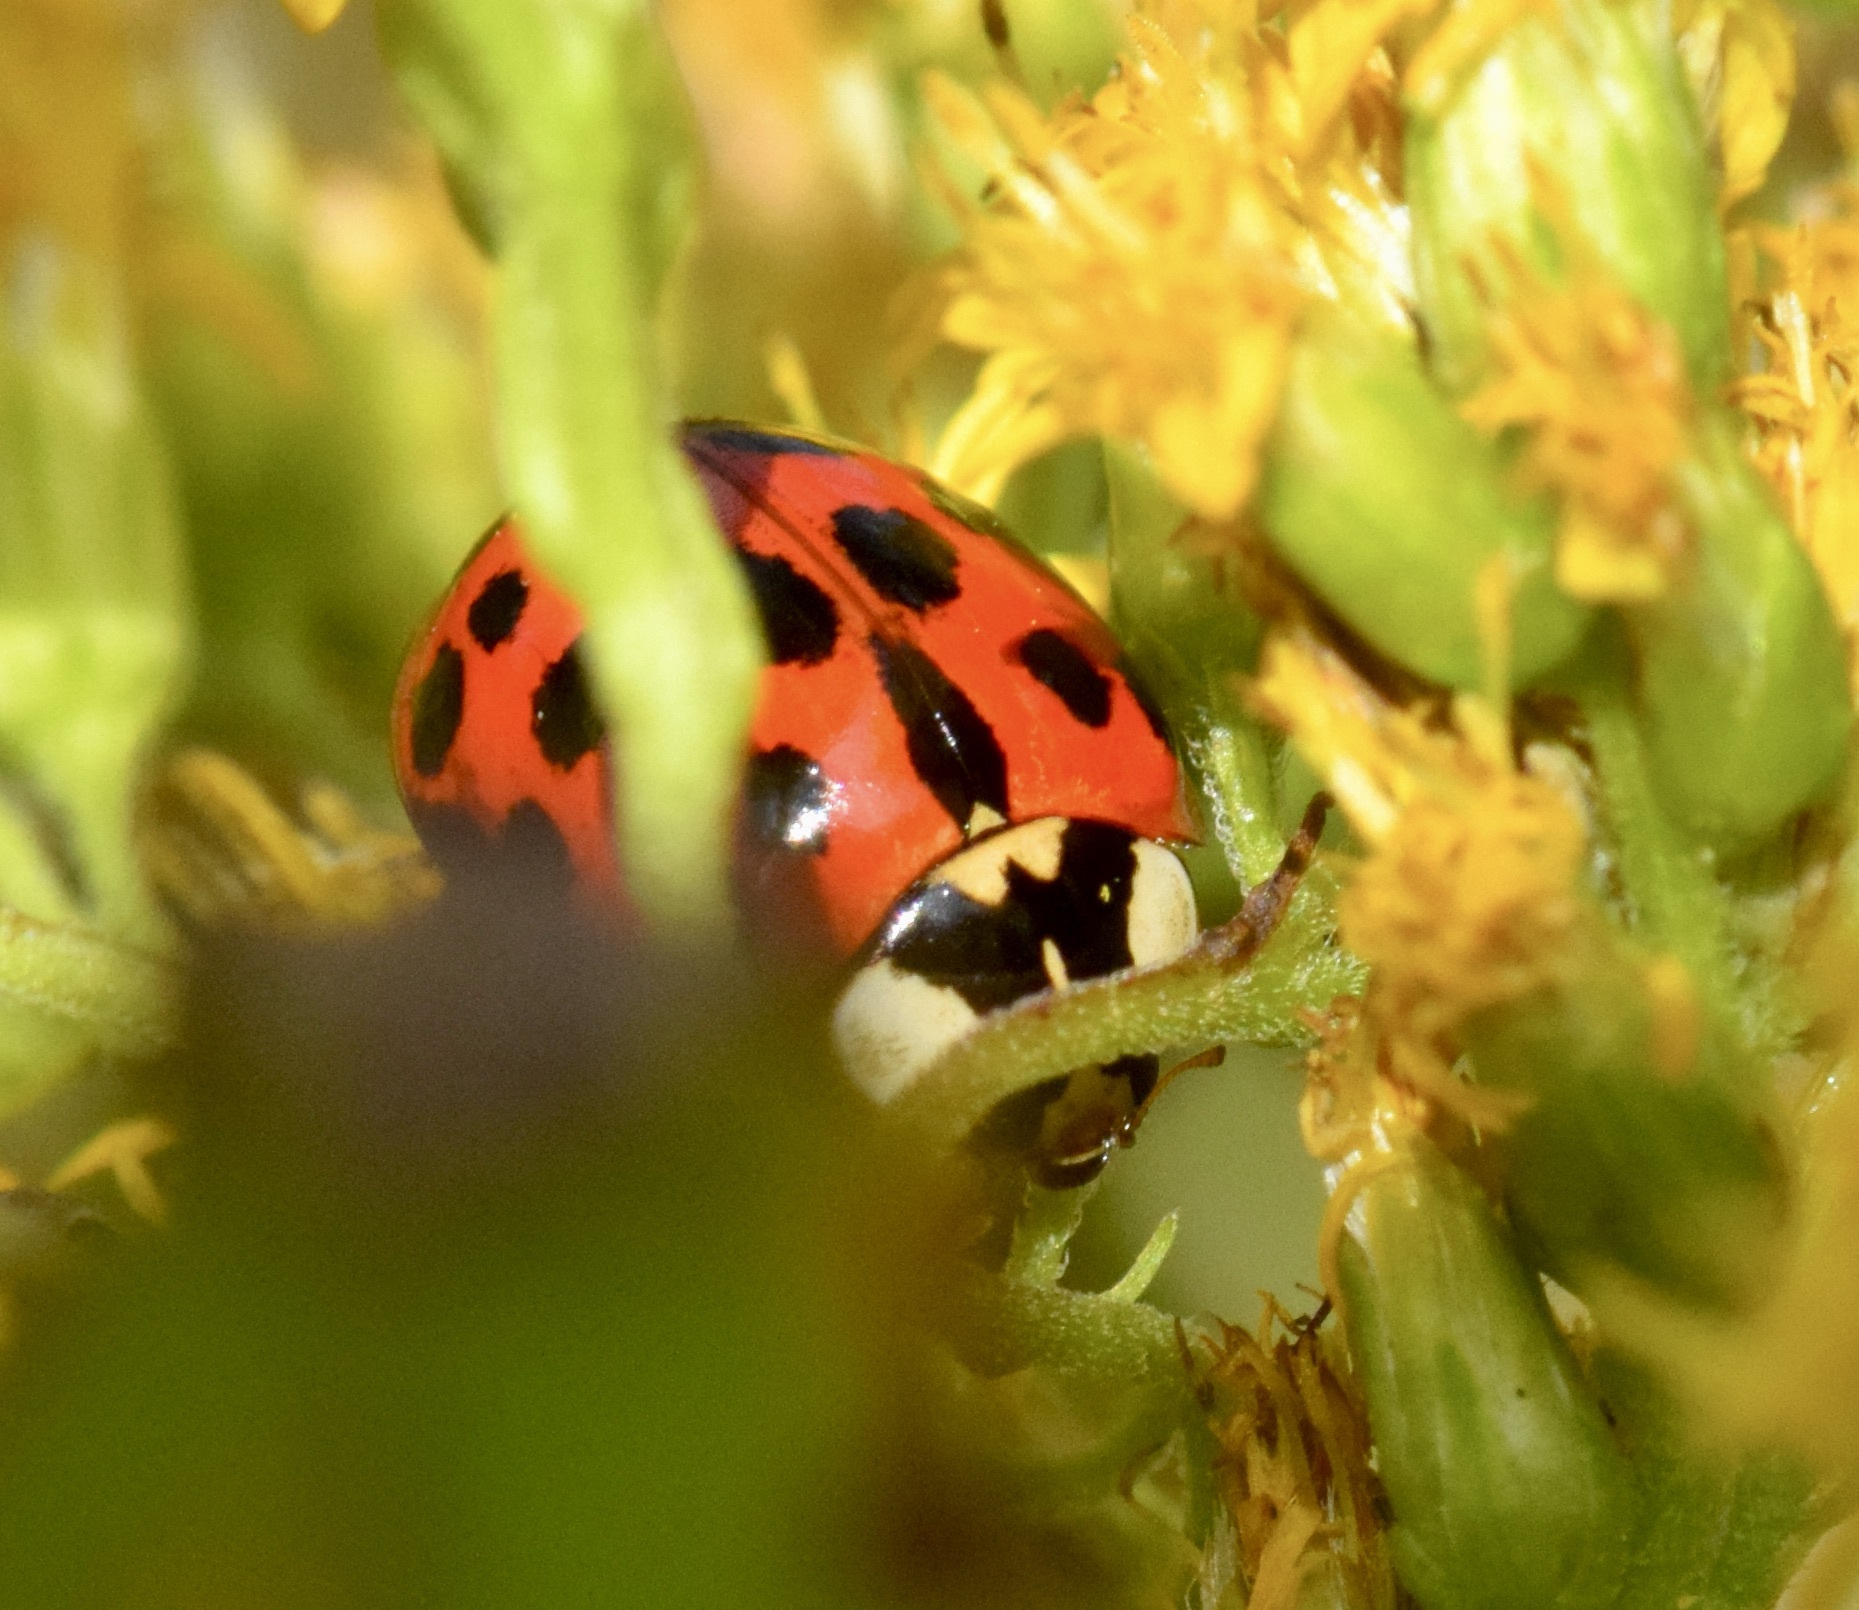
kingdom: Animalia
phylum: Arthropoda
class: Insecta
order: Coleoptera
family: Coccinellidae
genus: Harmonia
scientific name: Harmonia axyridis
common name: Harlequin ladybird
